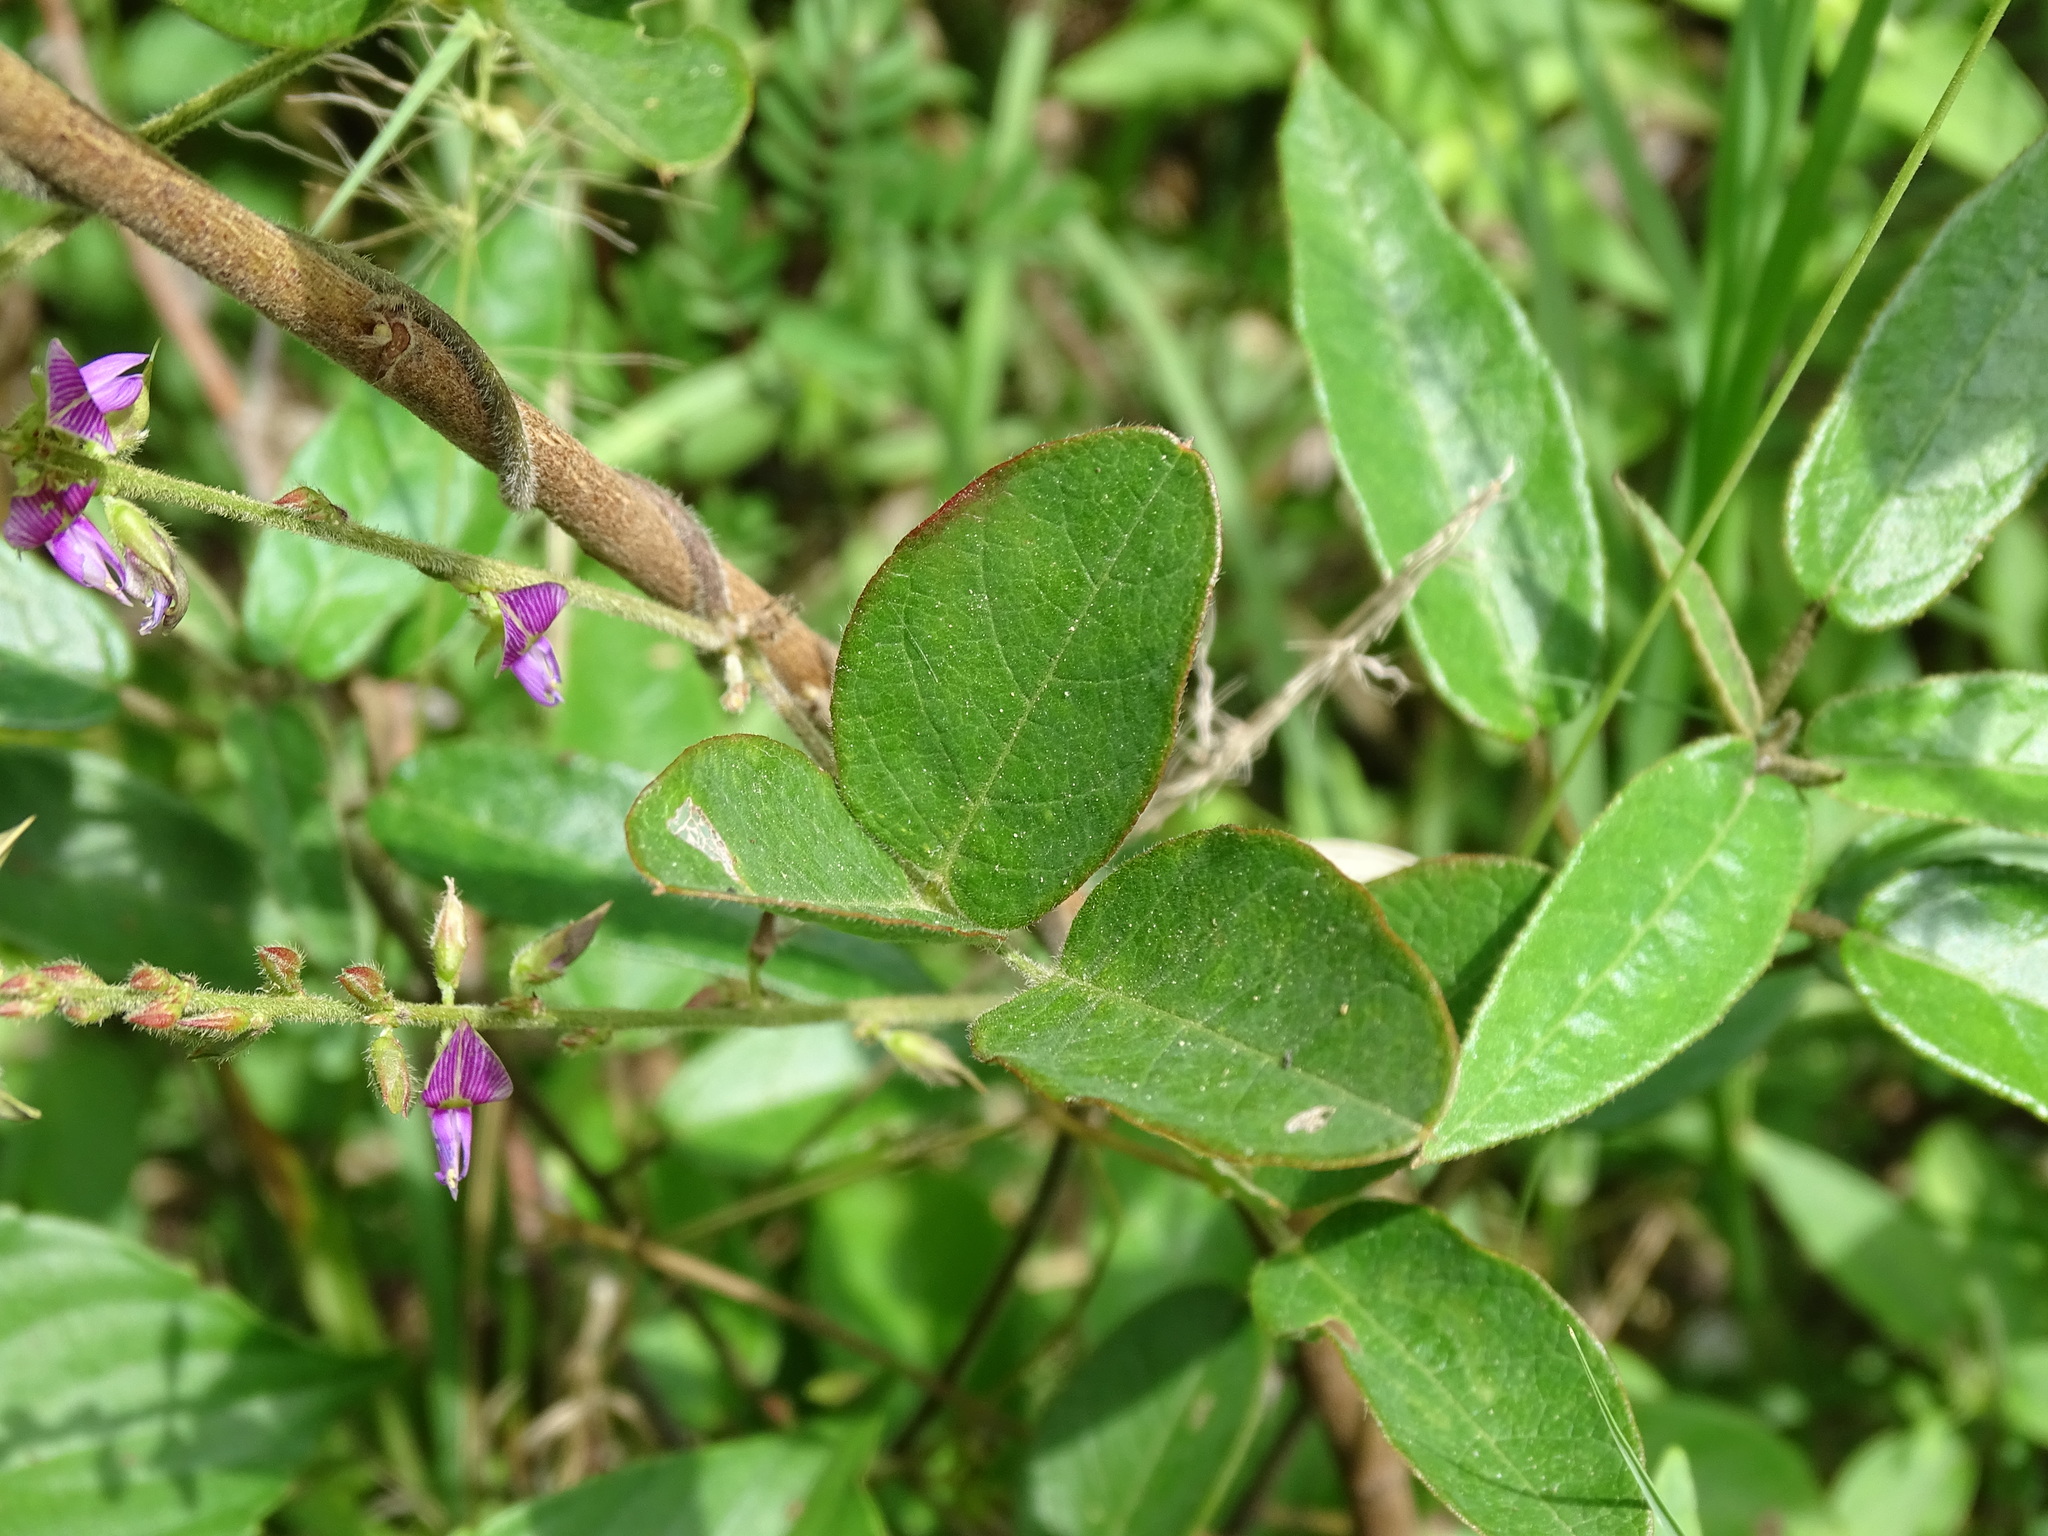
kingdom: Plantae
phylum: Tracheophyta
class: Magnoliopsida
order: Fabales
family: Fabaceae
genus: Galactia
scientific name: Galactia striata
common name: Florida hammock milkpea
